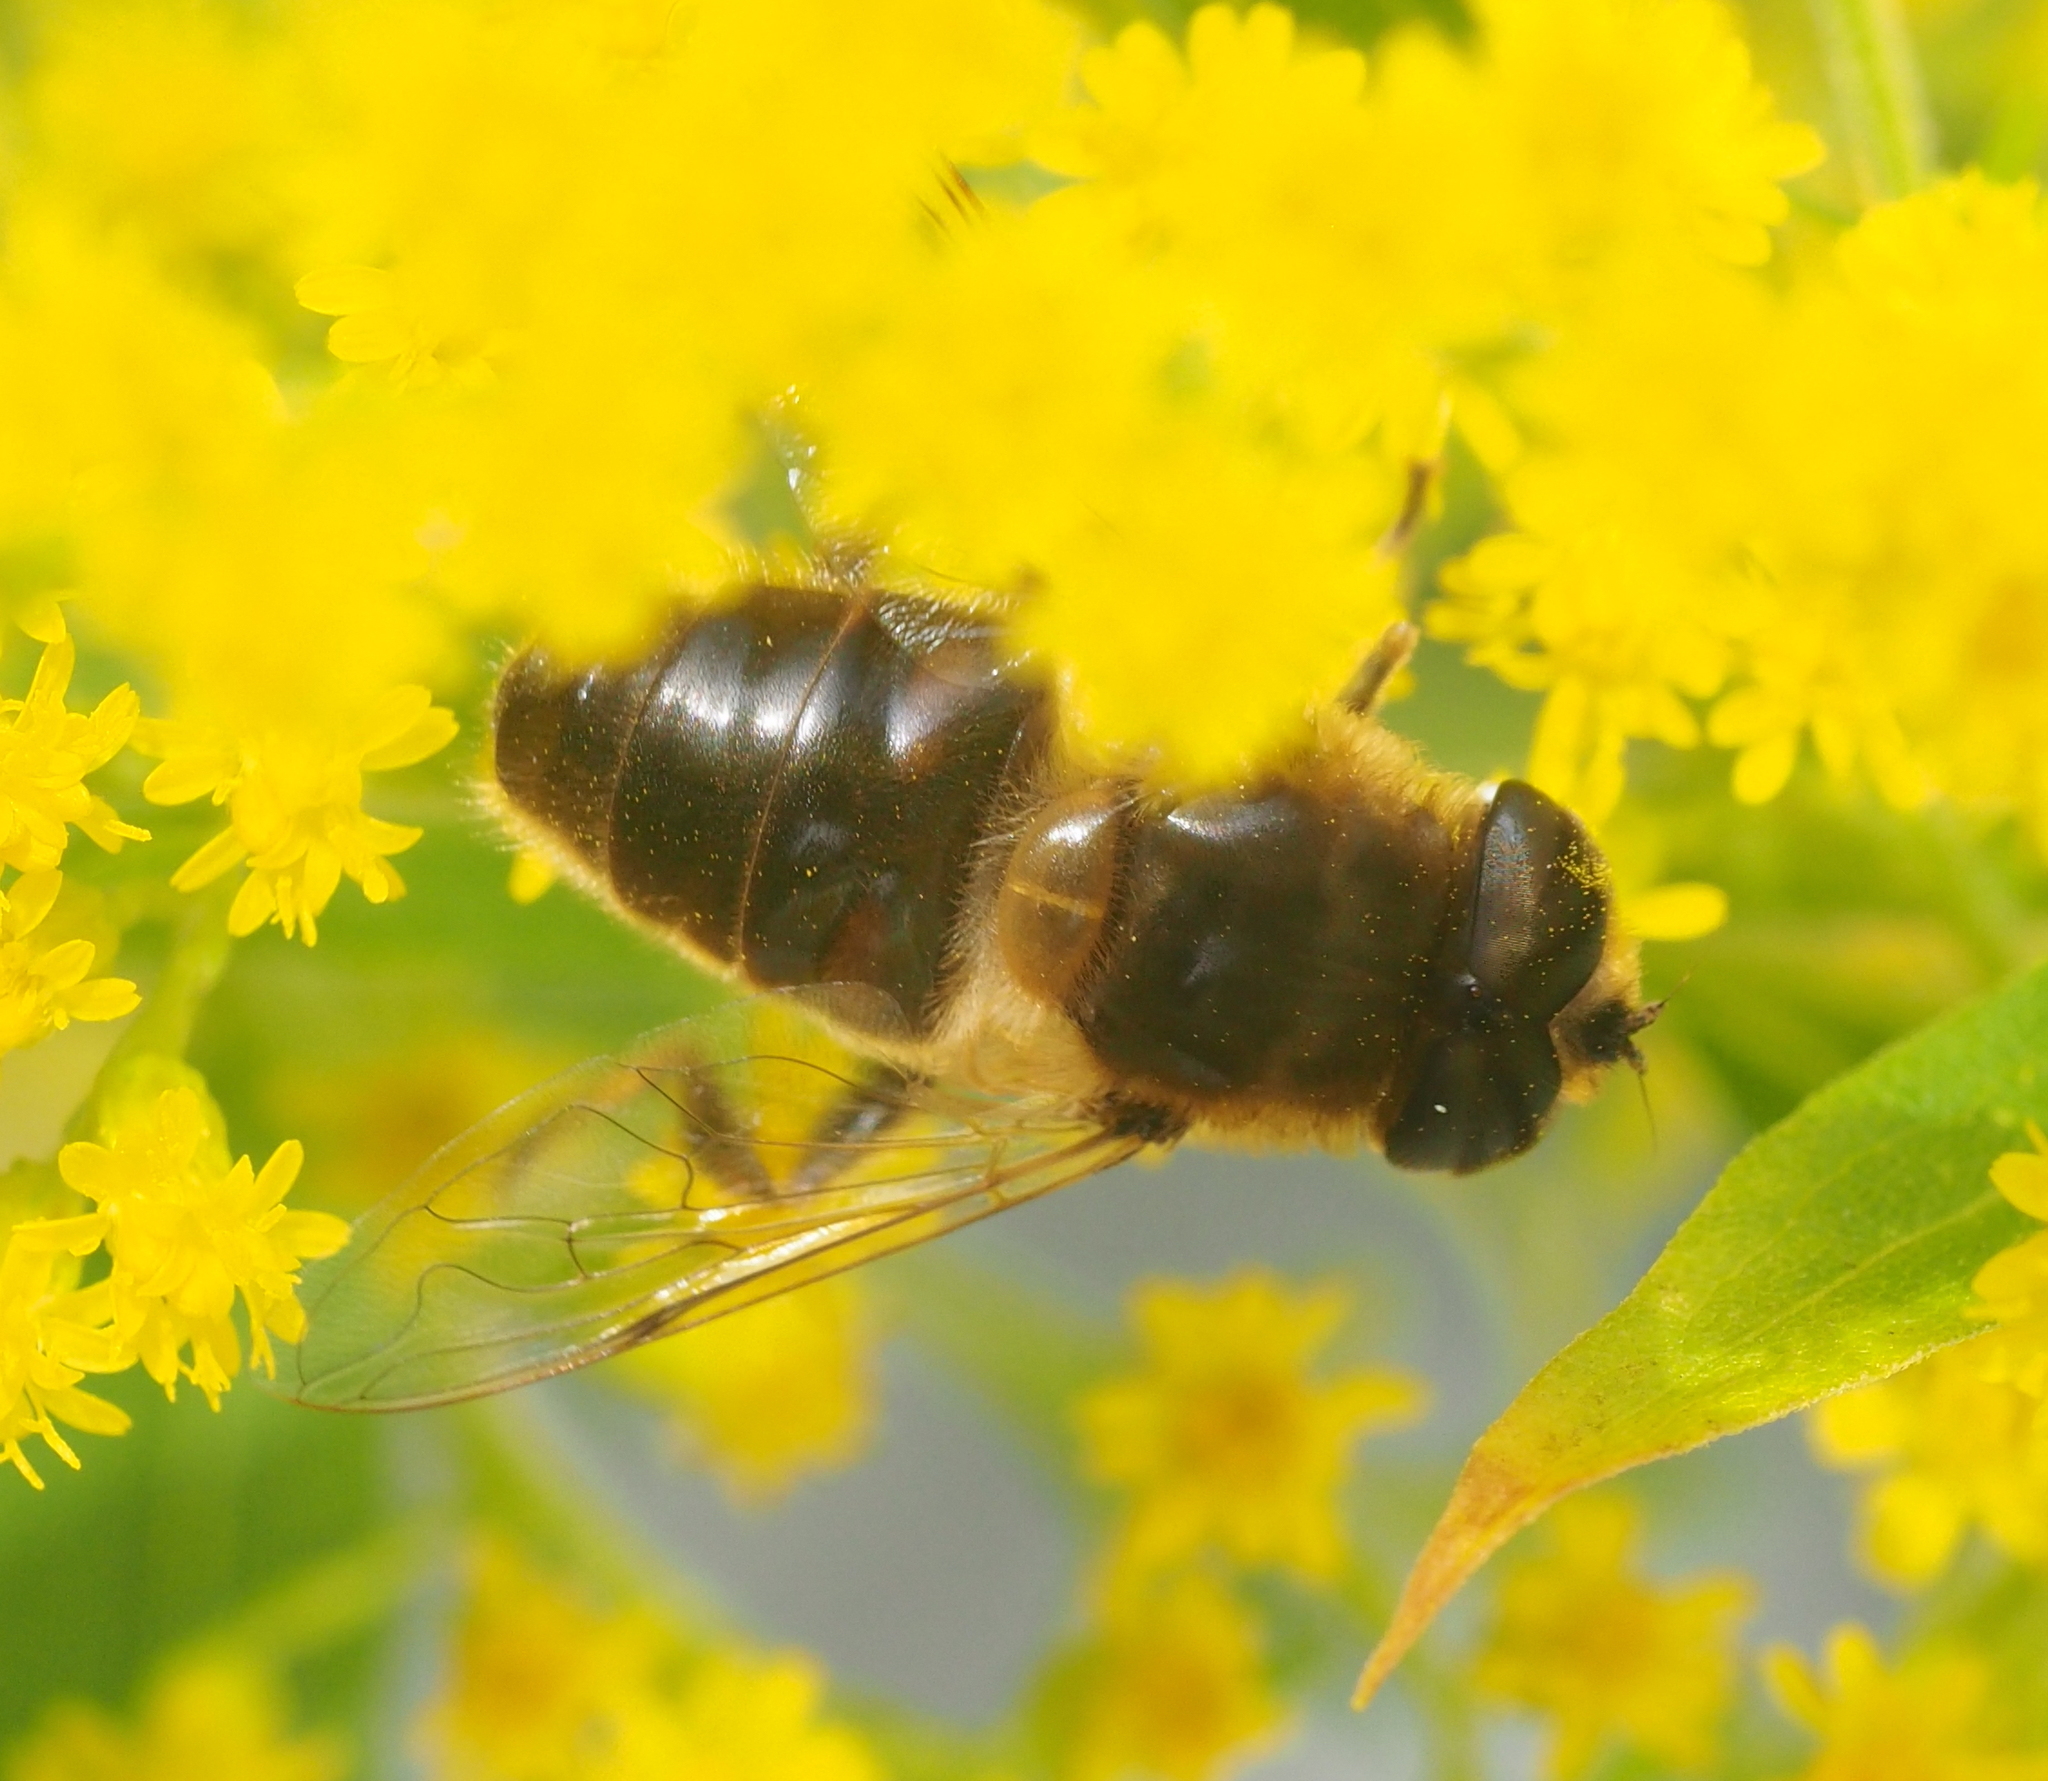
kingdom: Animalia
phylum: Arthropoda
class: Insecta
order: Diptera
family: Syrphidae
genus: Eristalis
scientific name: Eristalis tenax
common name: Drone fly
